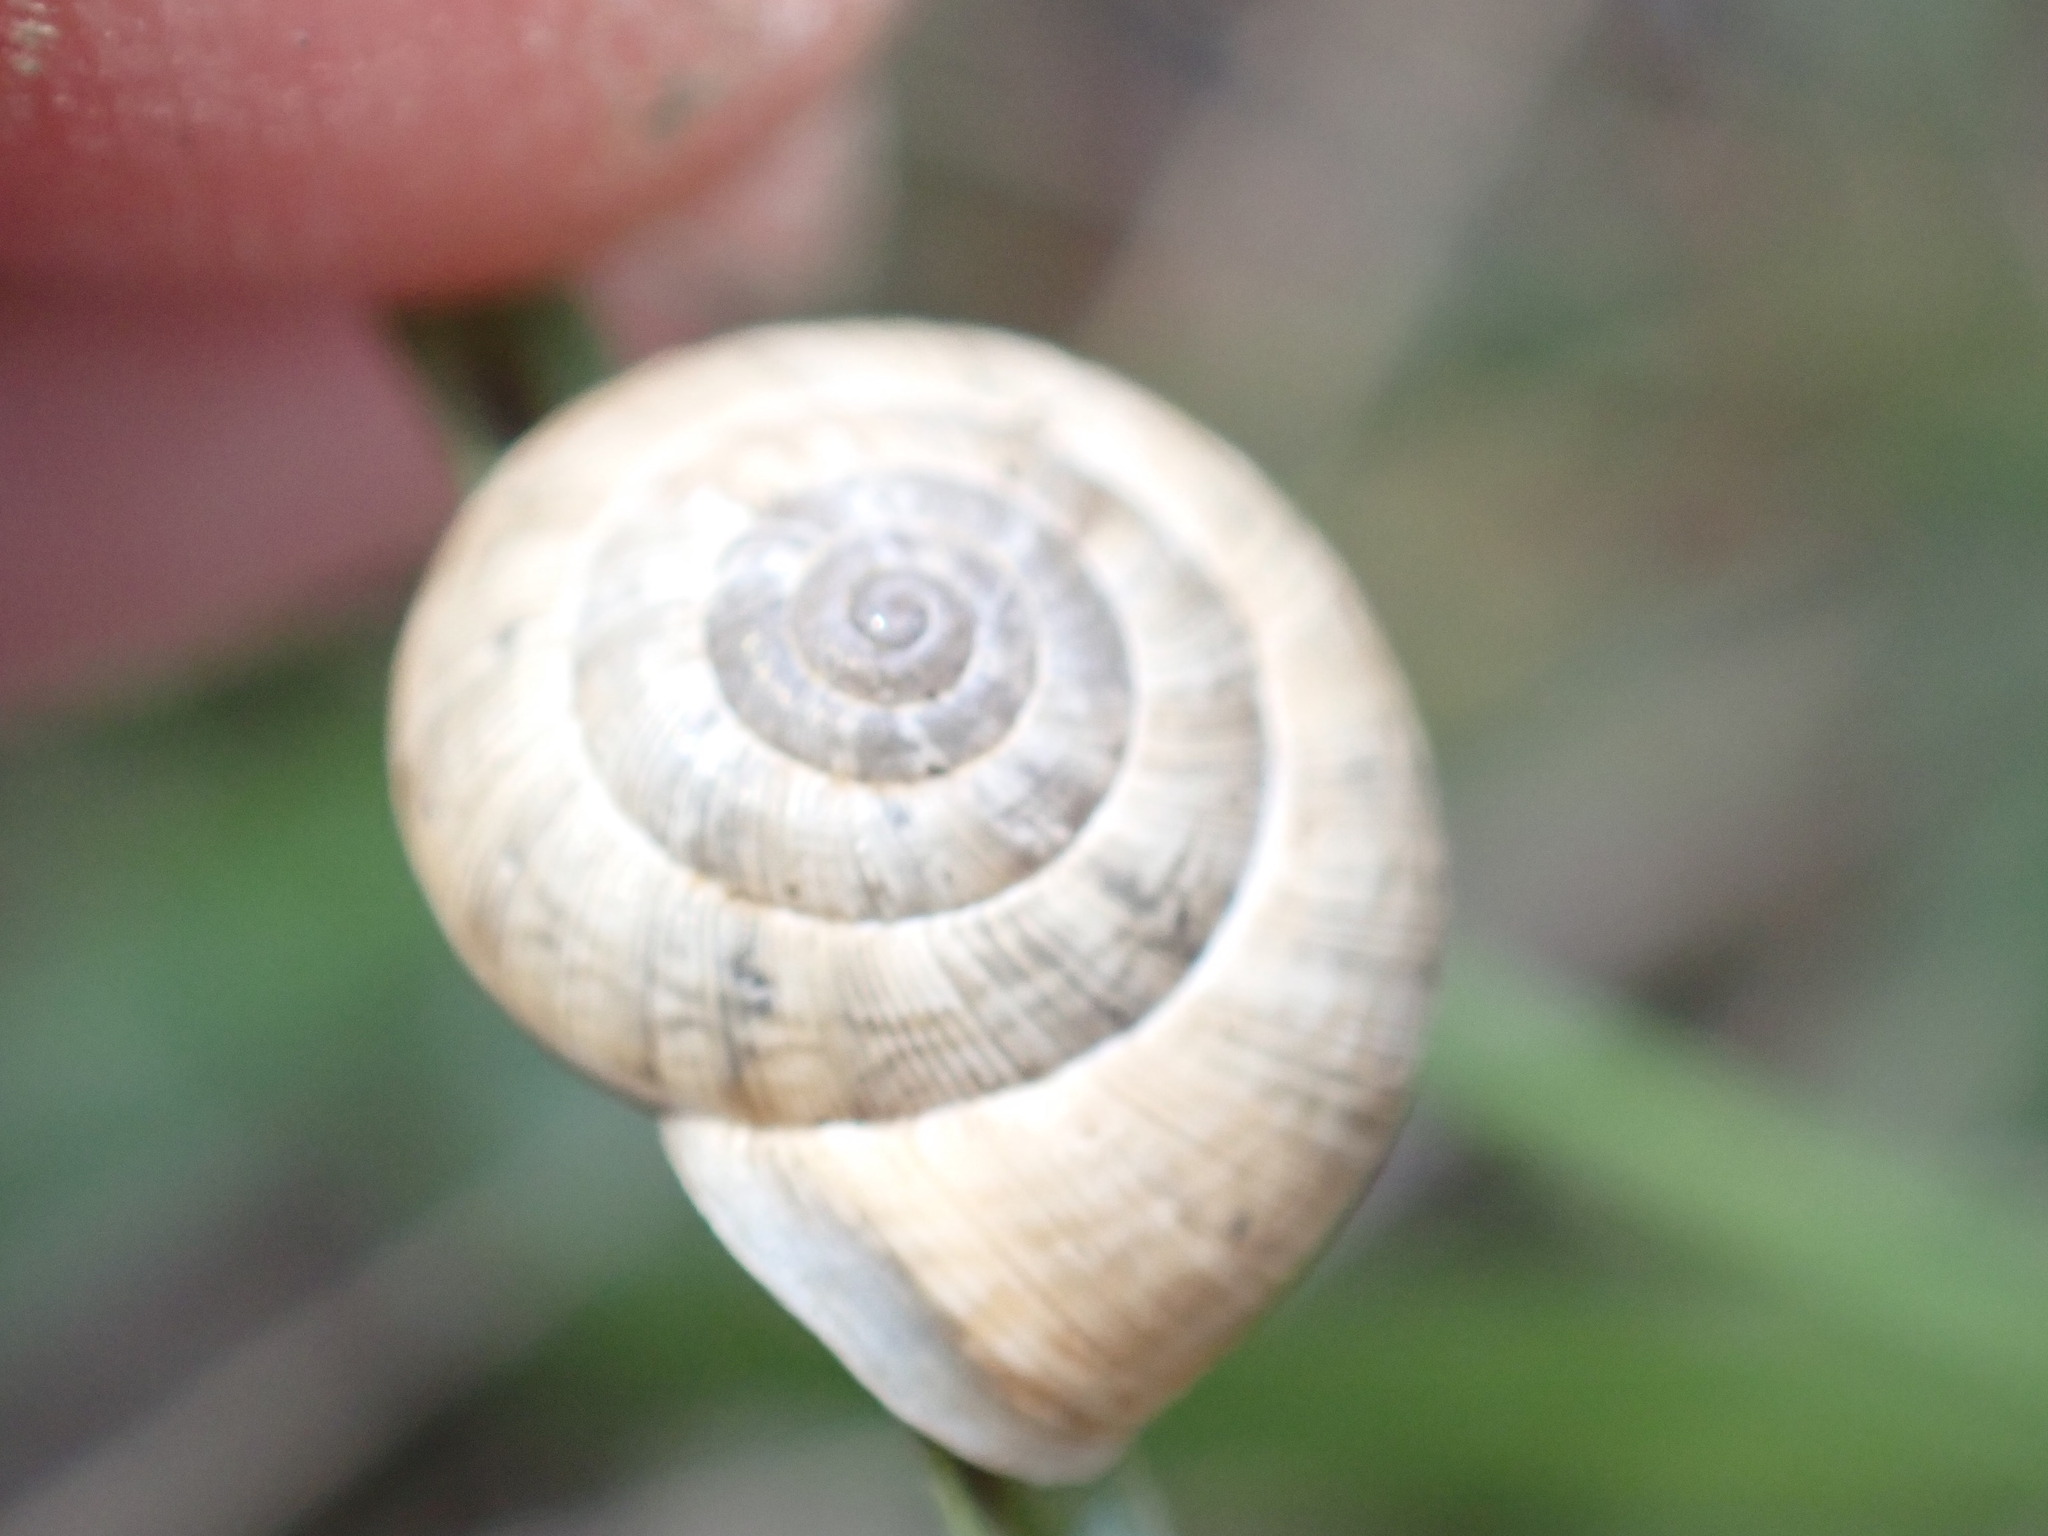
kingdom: Animalia
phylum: Mollusca
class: Gastropoda
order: Stylommatophora
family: Geomitridae
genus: Xerosecta
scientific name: Xerosecta cespitum
